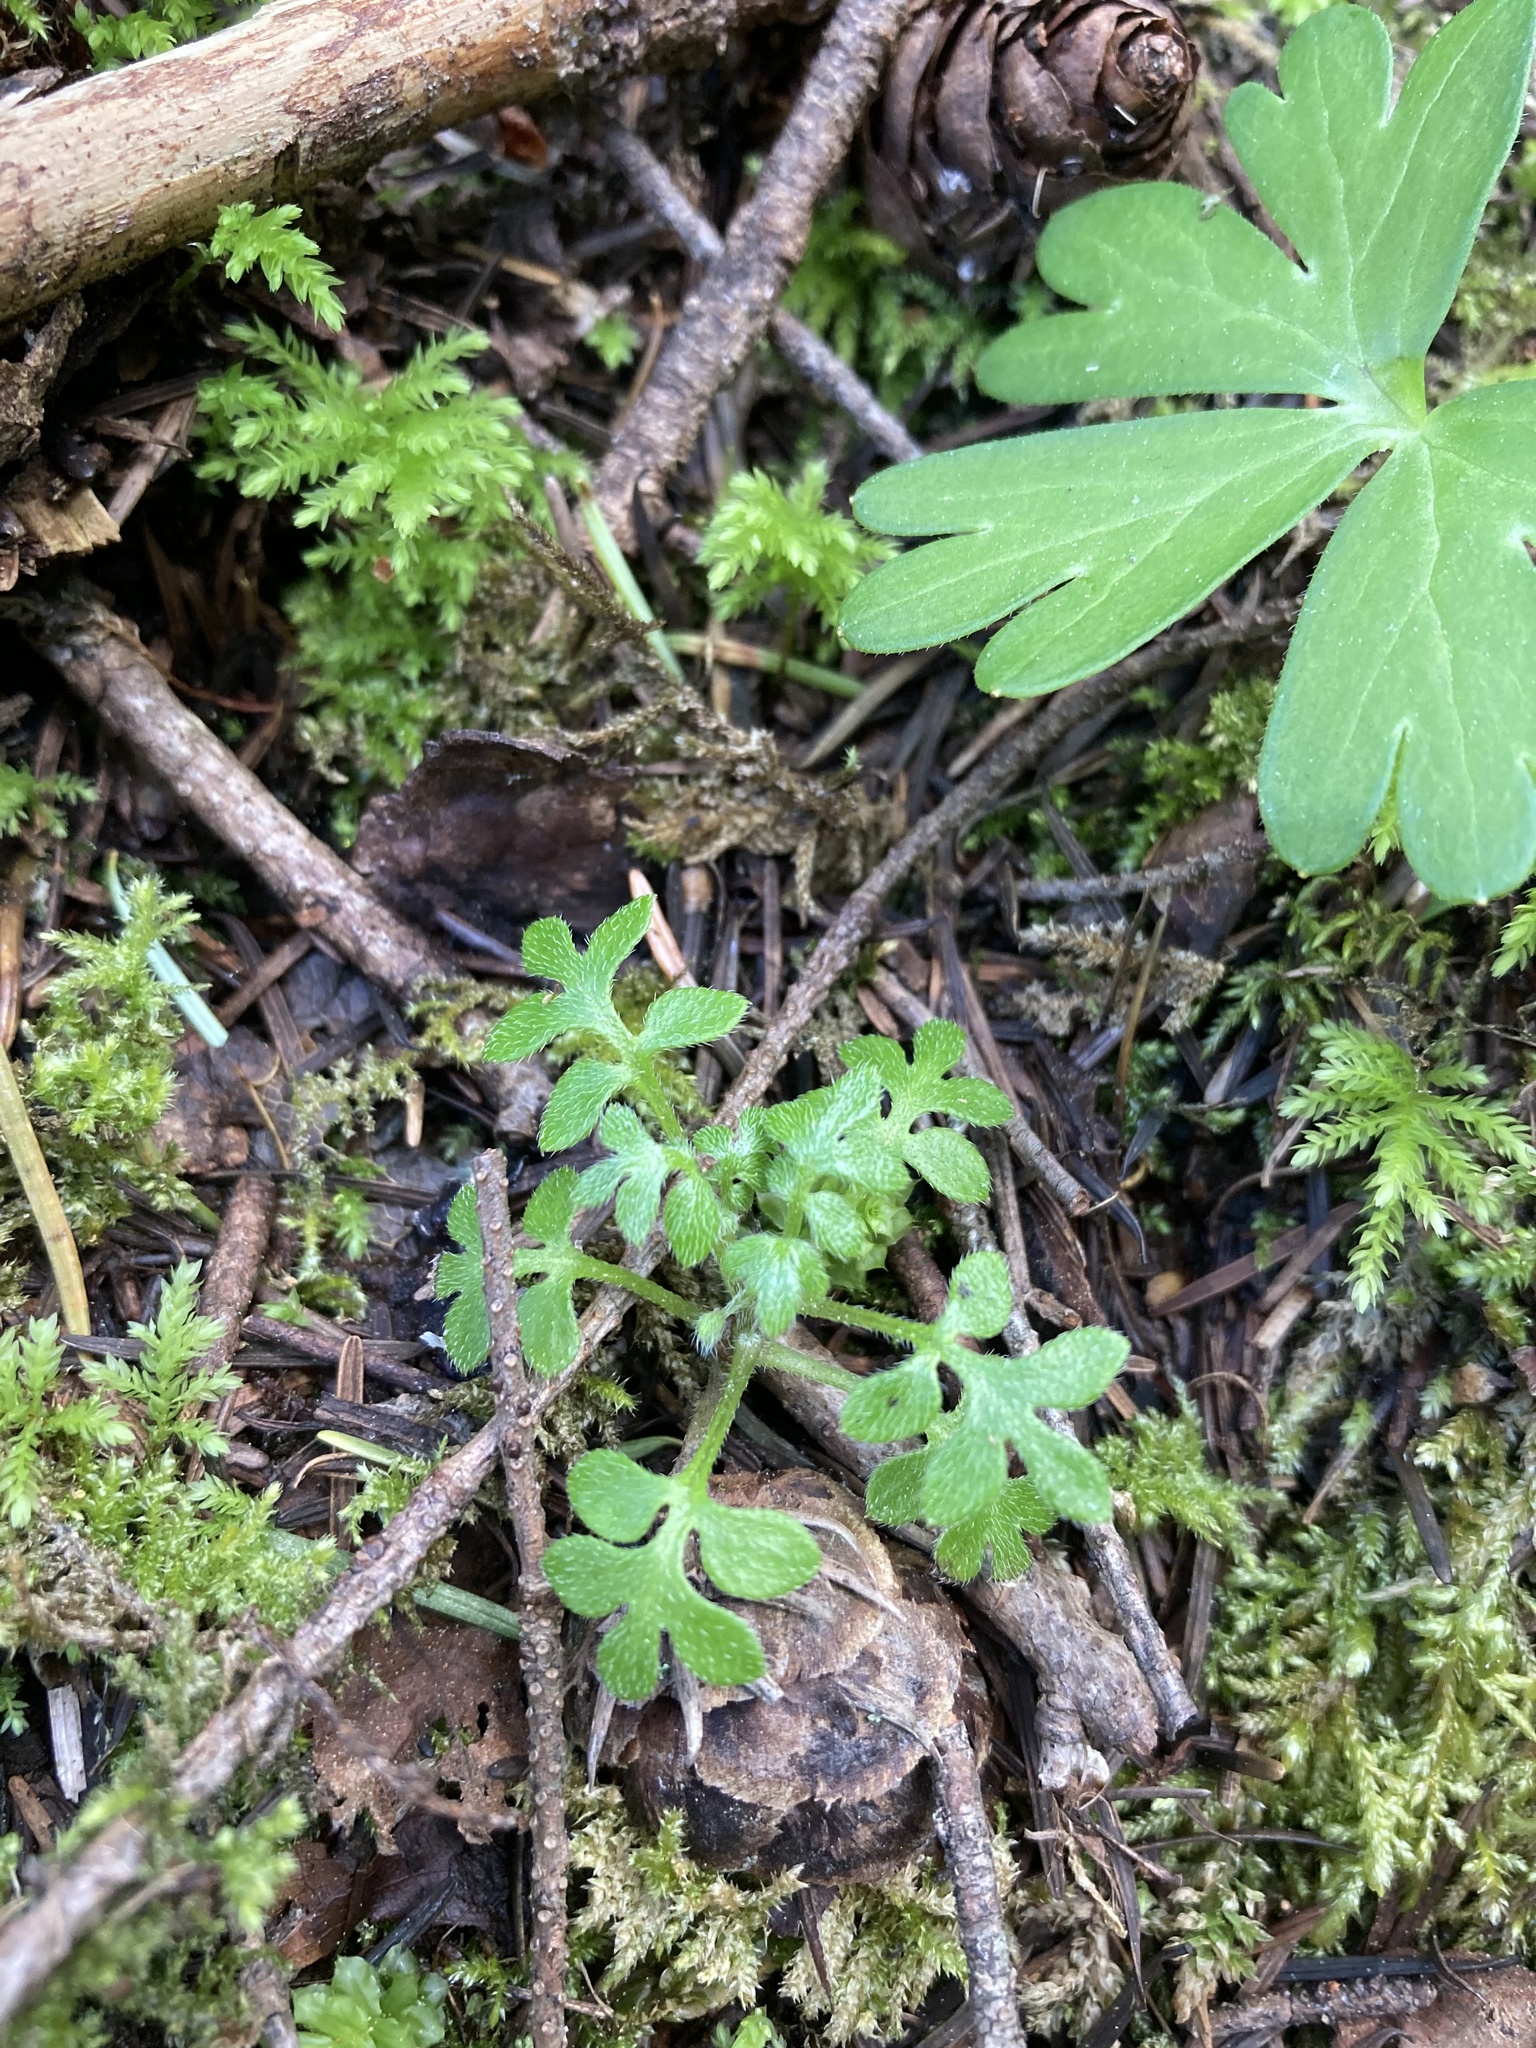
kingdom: Plantae
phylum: Tracheophyta
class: Magnoliopsida
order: Boraginales
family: Hydrophyllaceae
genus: Nemophila
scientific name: Nemophila parviflora
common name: Small-flowered baby-blue-eyes
